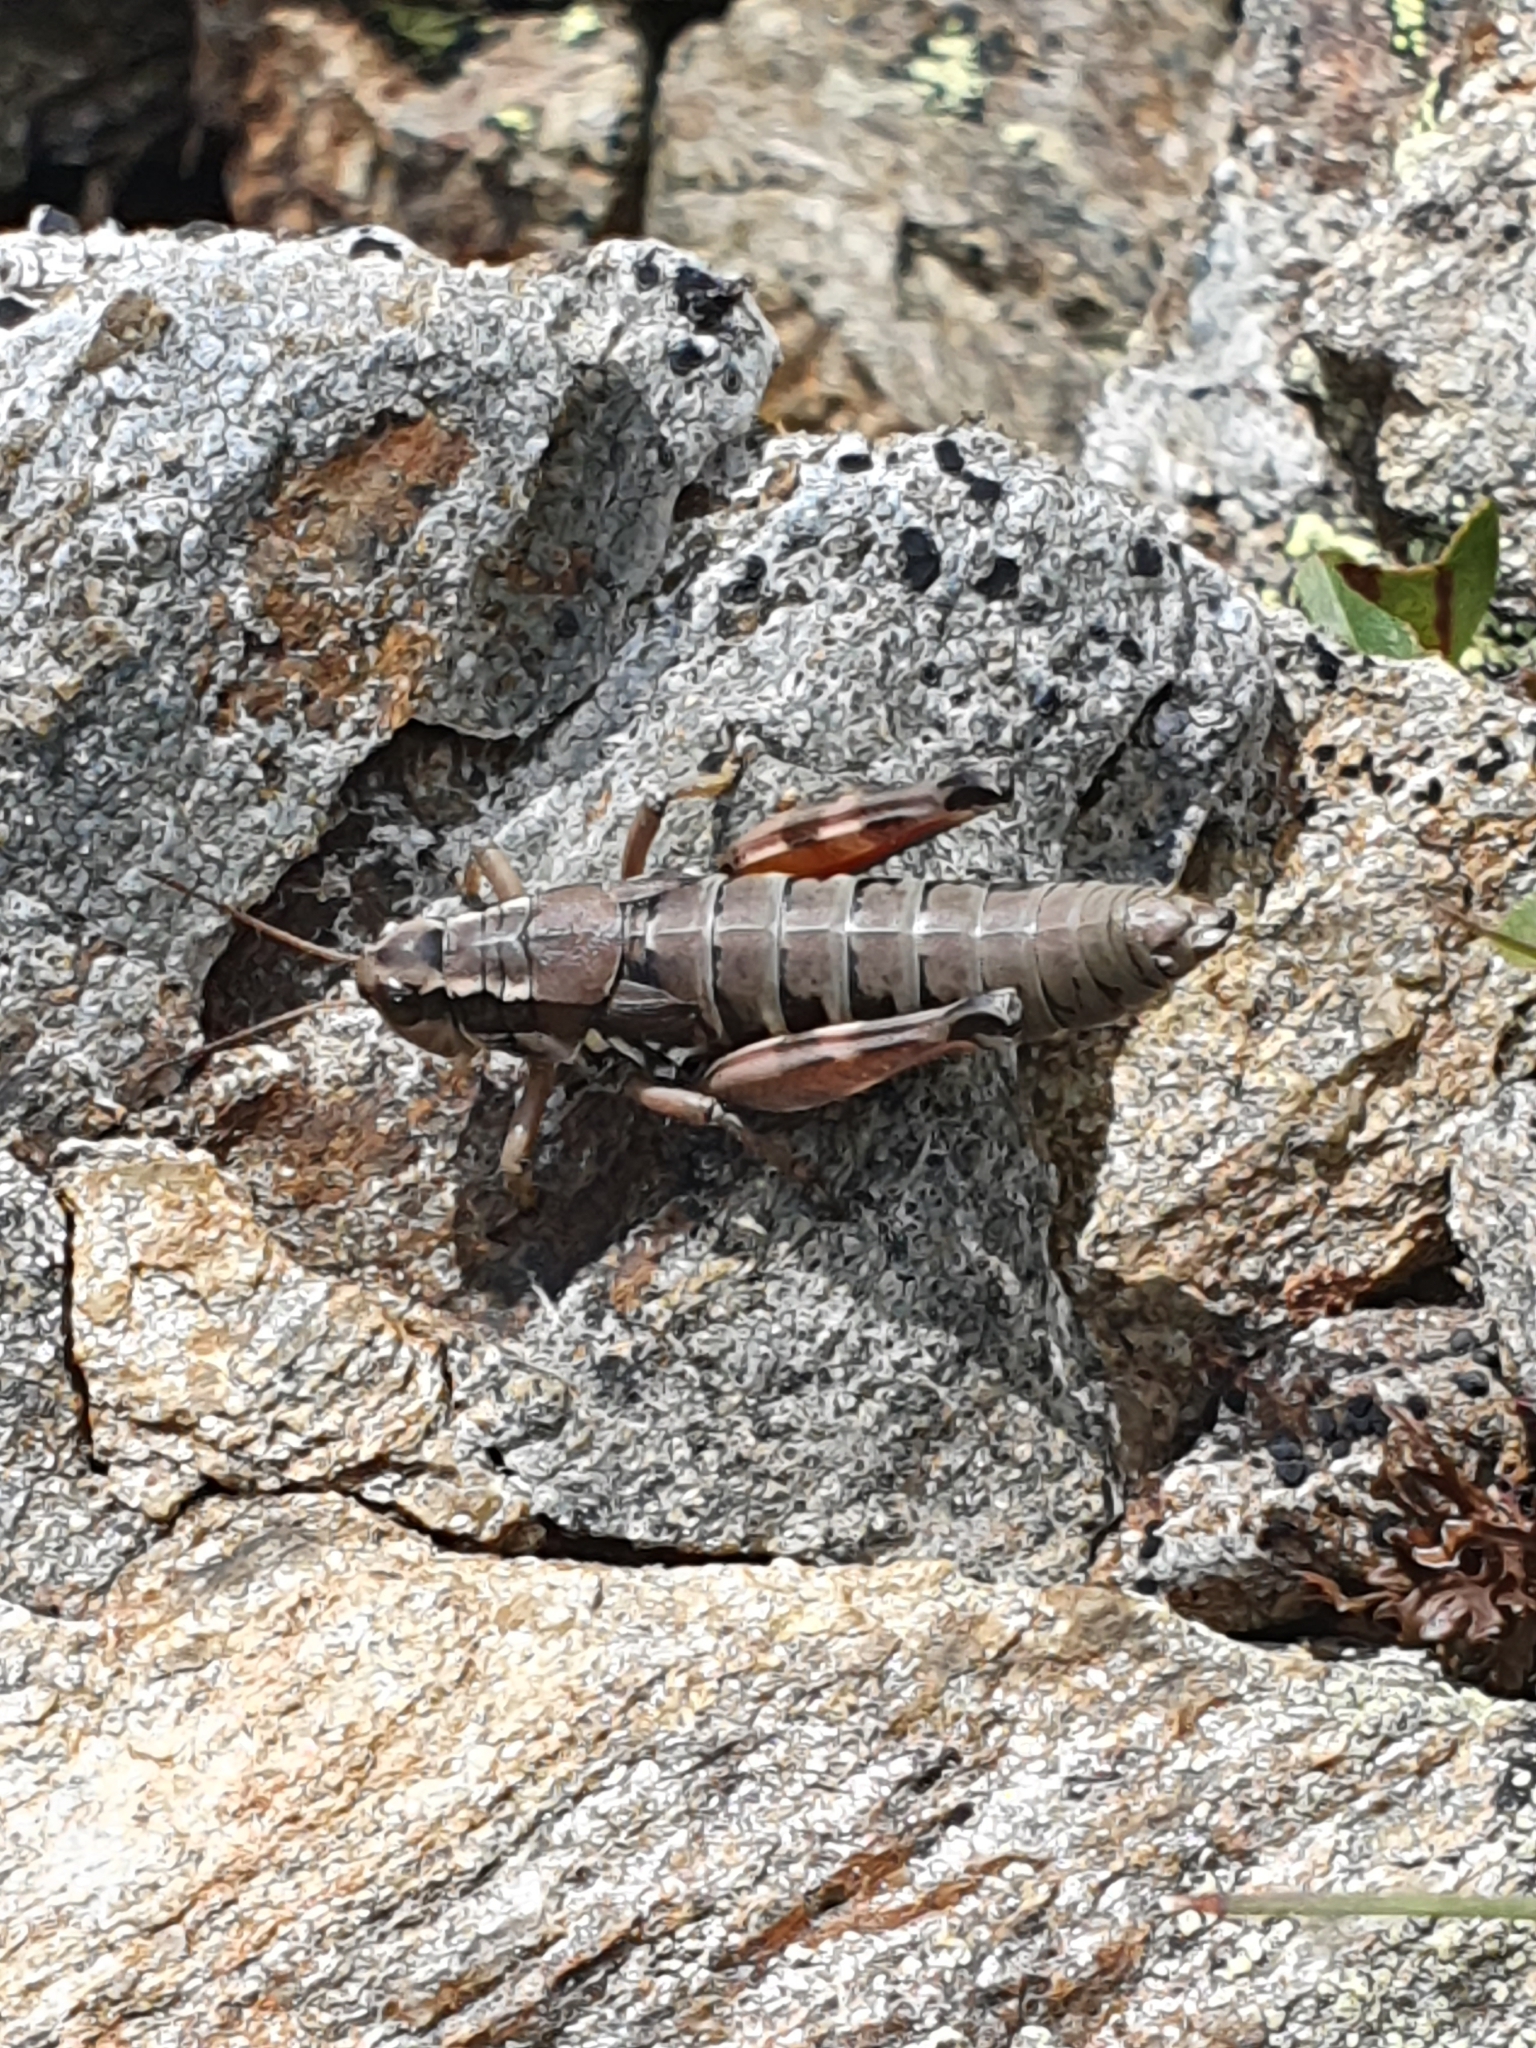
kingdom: Animalia
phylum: Arthropoda
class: Insecta
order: Orthoptera
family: Acrididae
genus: Podisma
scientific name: Podisma pedestris
